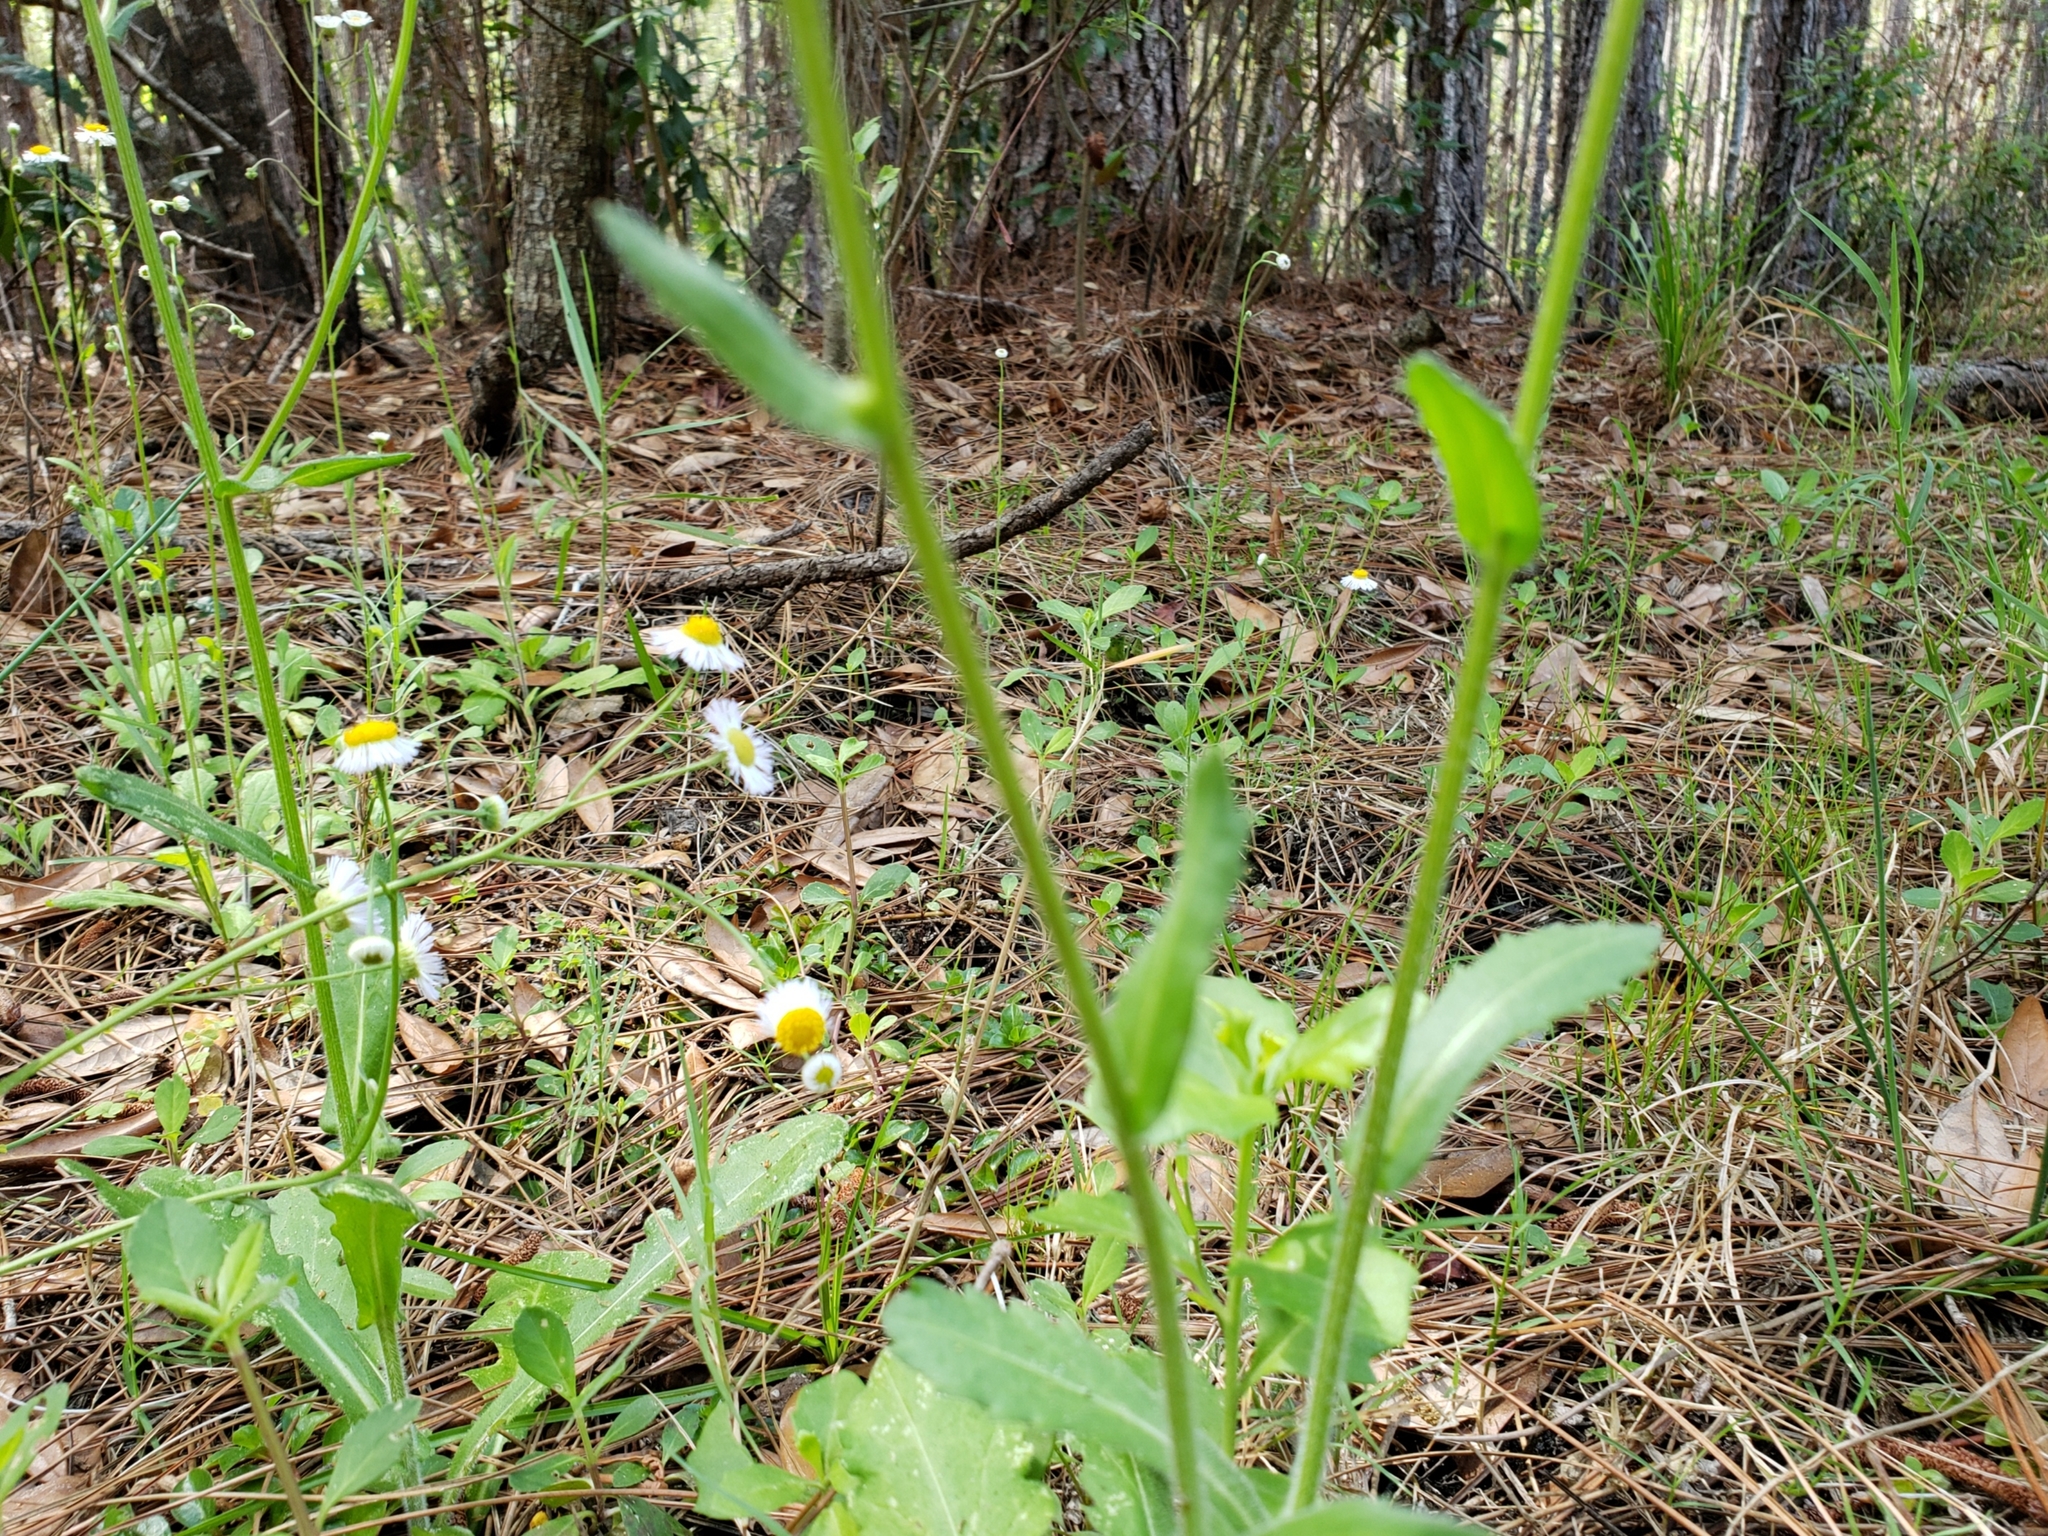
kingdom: Plantae
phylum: Tracheophyta
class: Magnoliopsida
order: Asterales
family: Asteraceae
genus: Erigeron
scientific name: Erigeron quercifolius
